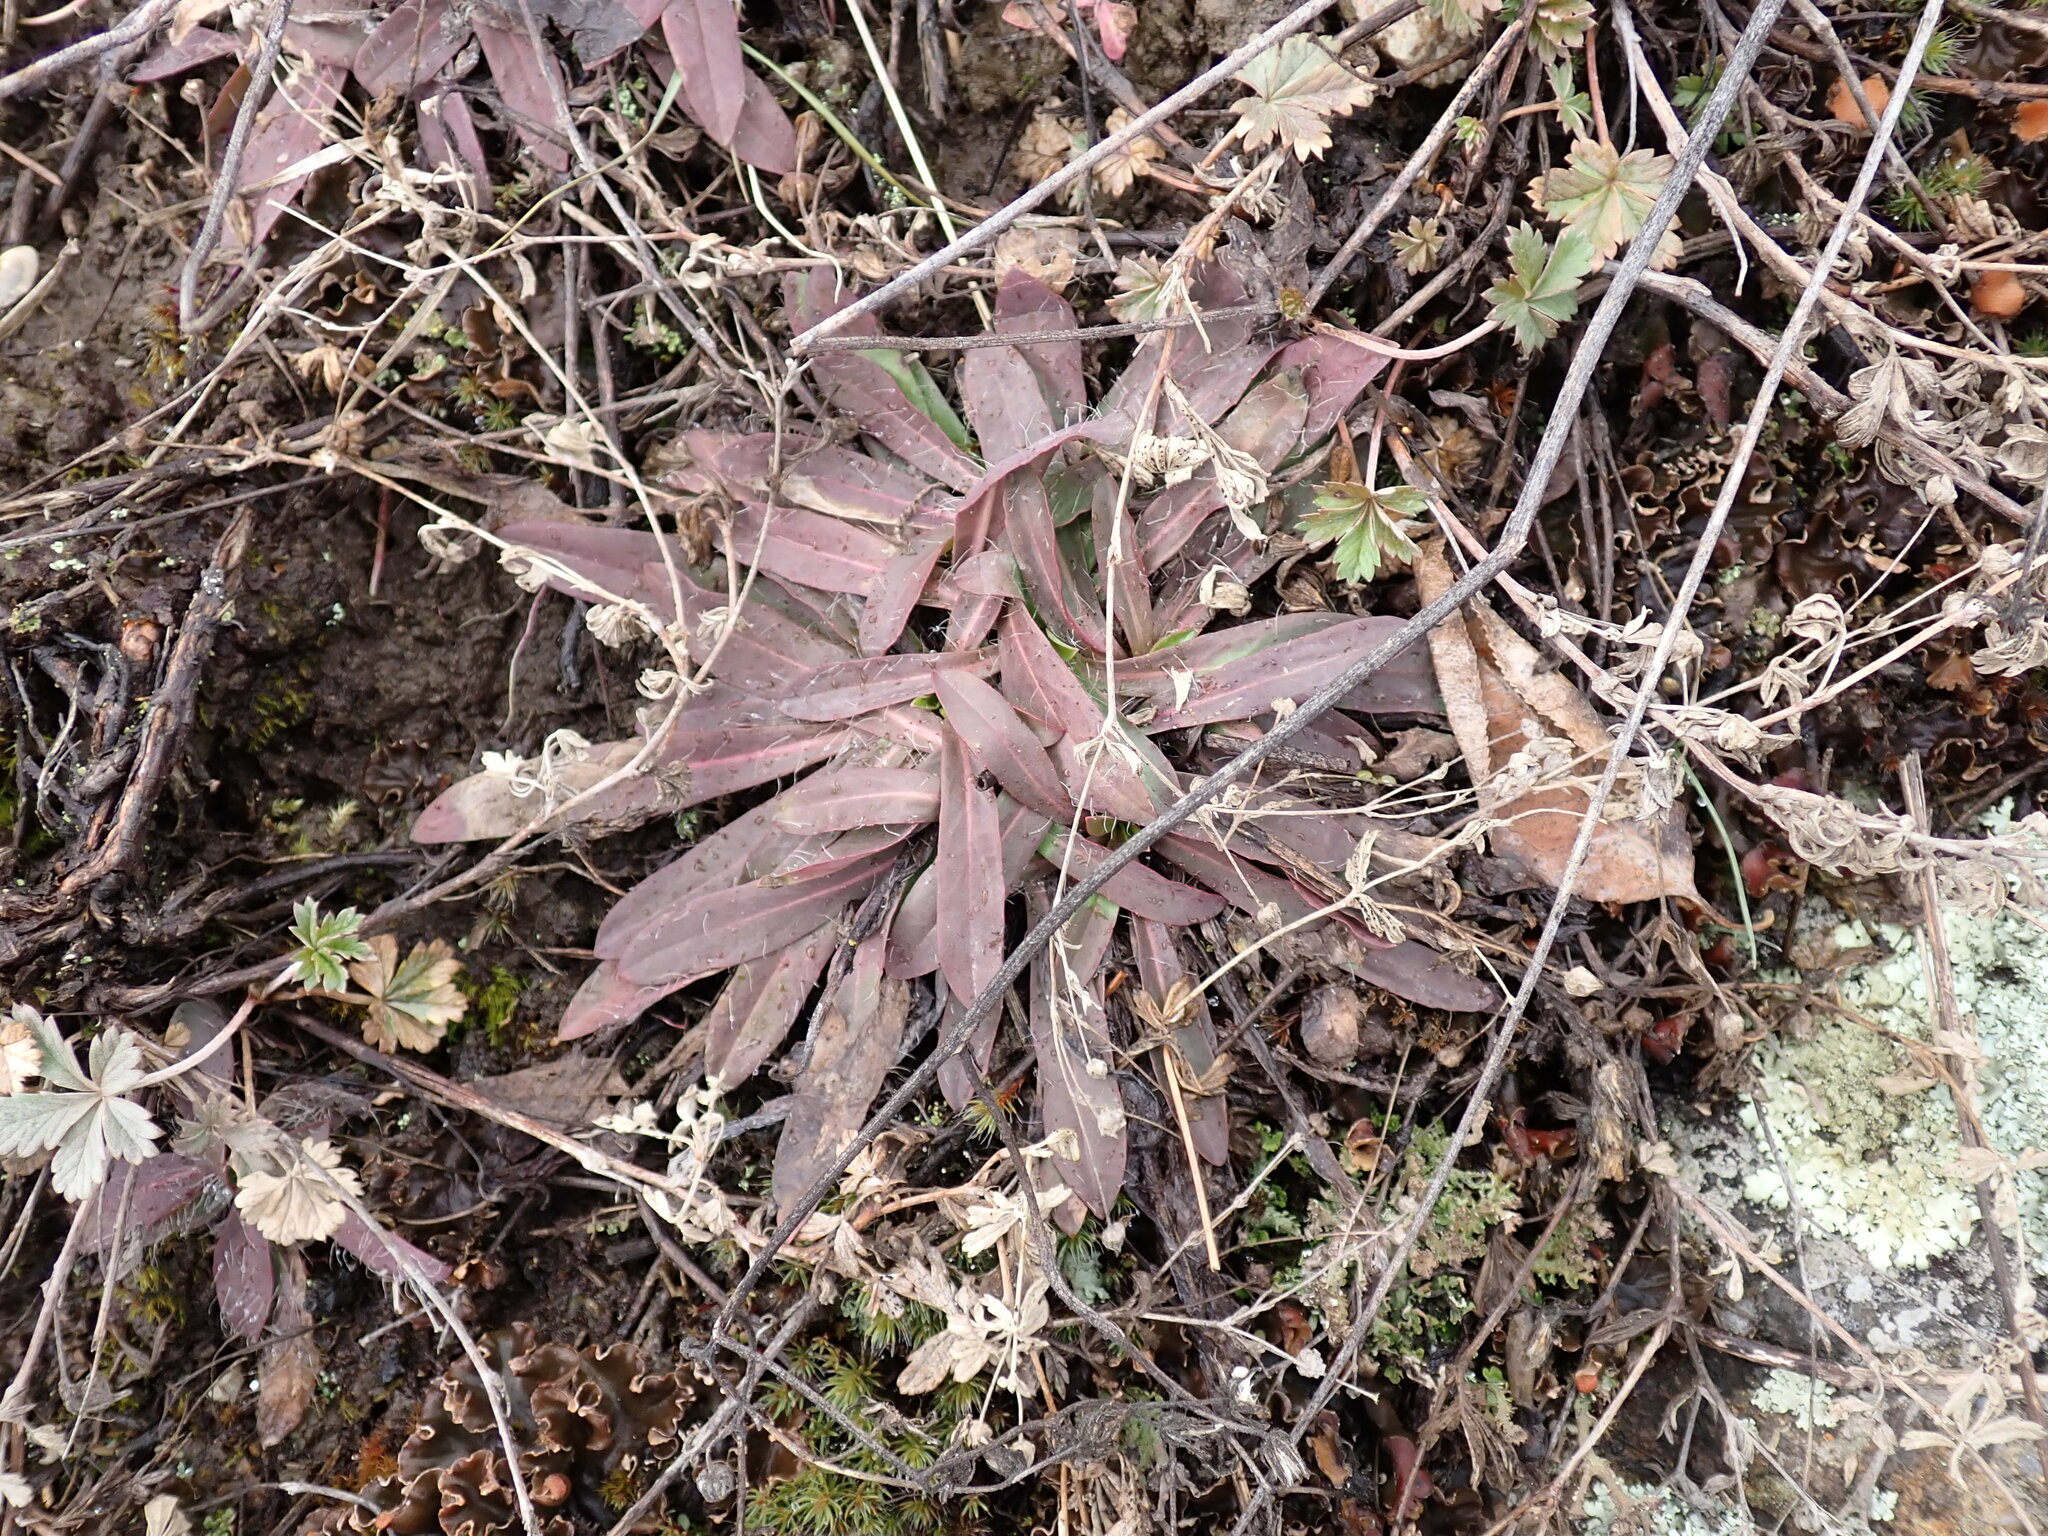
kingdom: Plantae
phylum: Tracheophyta
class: Magnoliopsida
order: Asterales
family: Asteraceae
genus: Pilosella
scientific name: Pilosella piloselloides
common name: Glaucous king-devil
